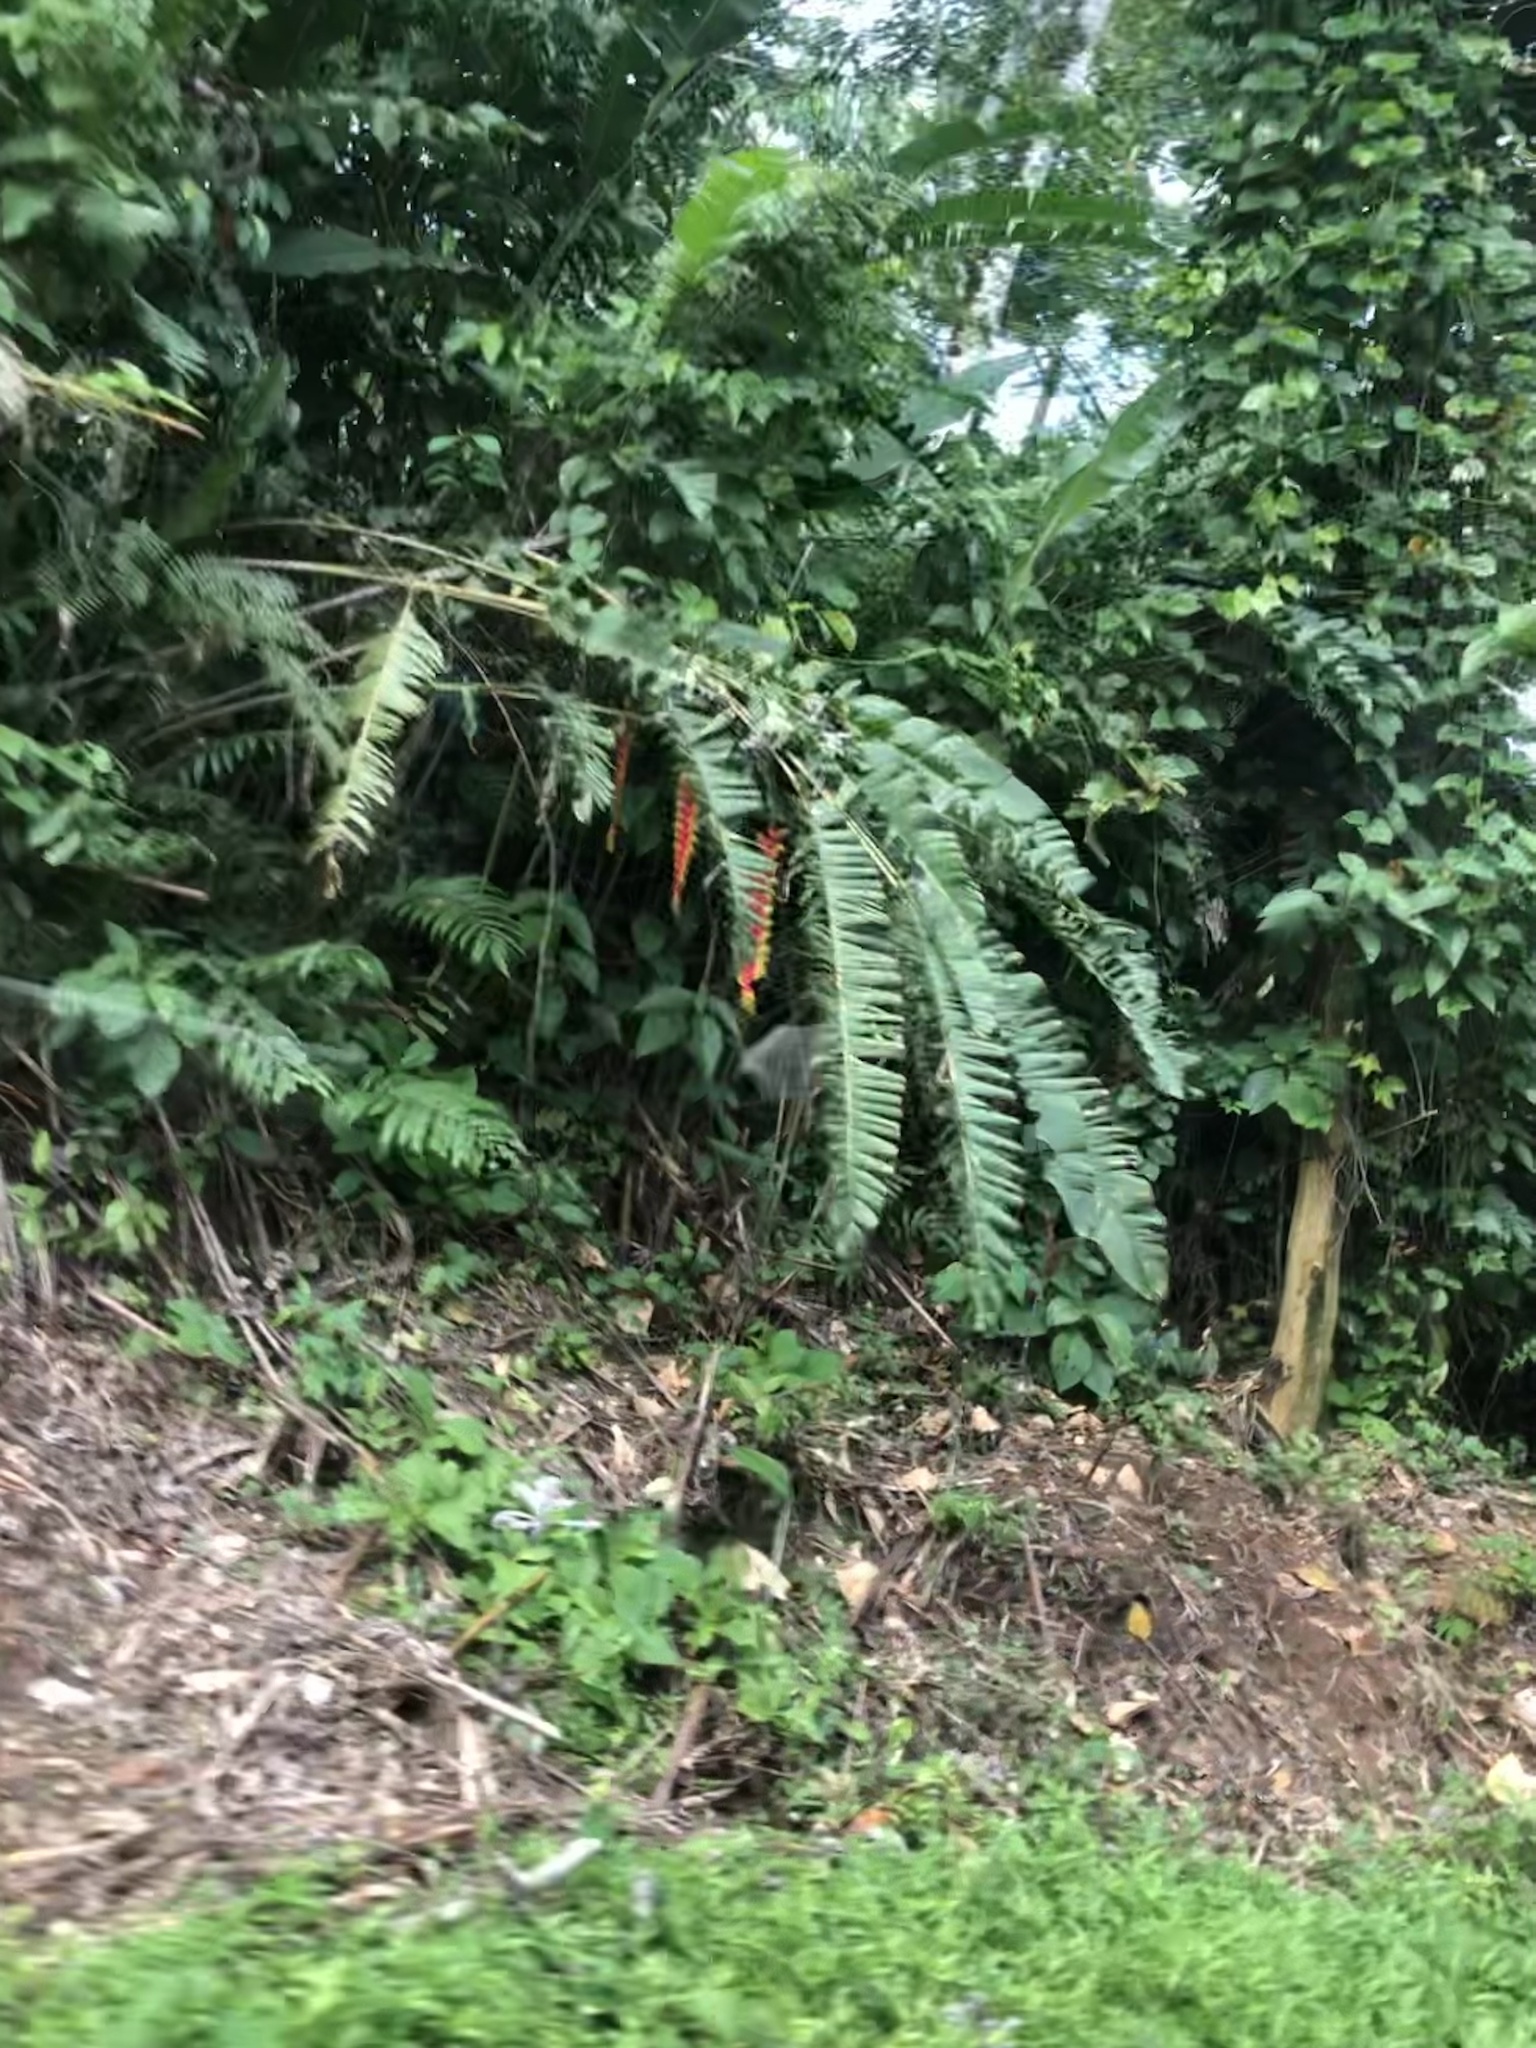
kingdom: Plantae
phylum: Tracheophyta
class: Liliopsida
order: Zingiberales
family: Heliconiaceae
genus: Heliconia
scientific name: Heliconia rostrata
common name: False bird of paradise
